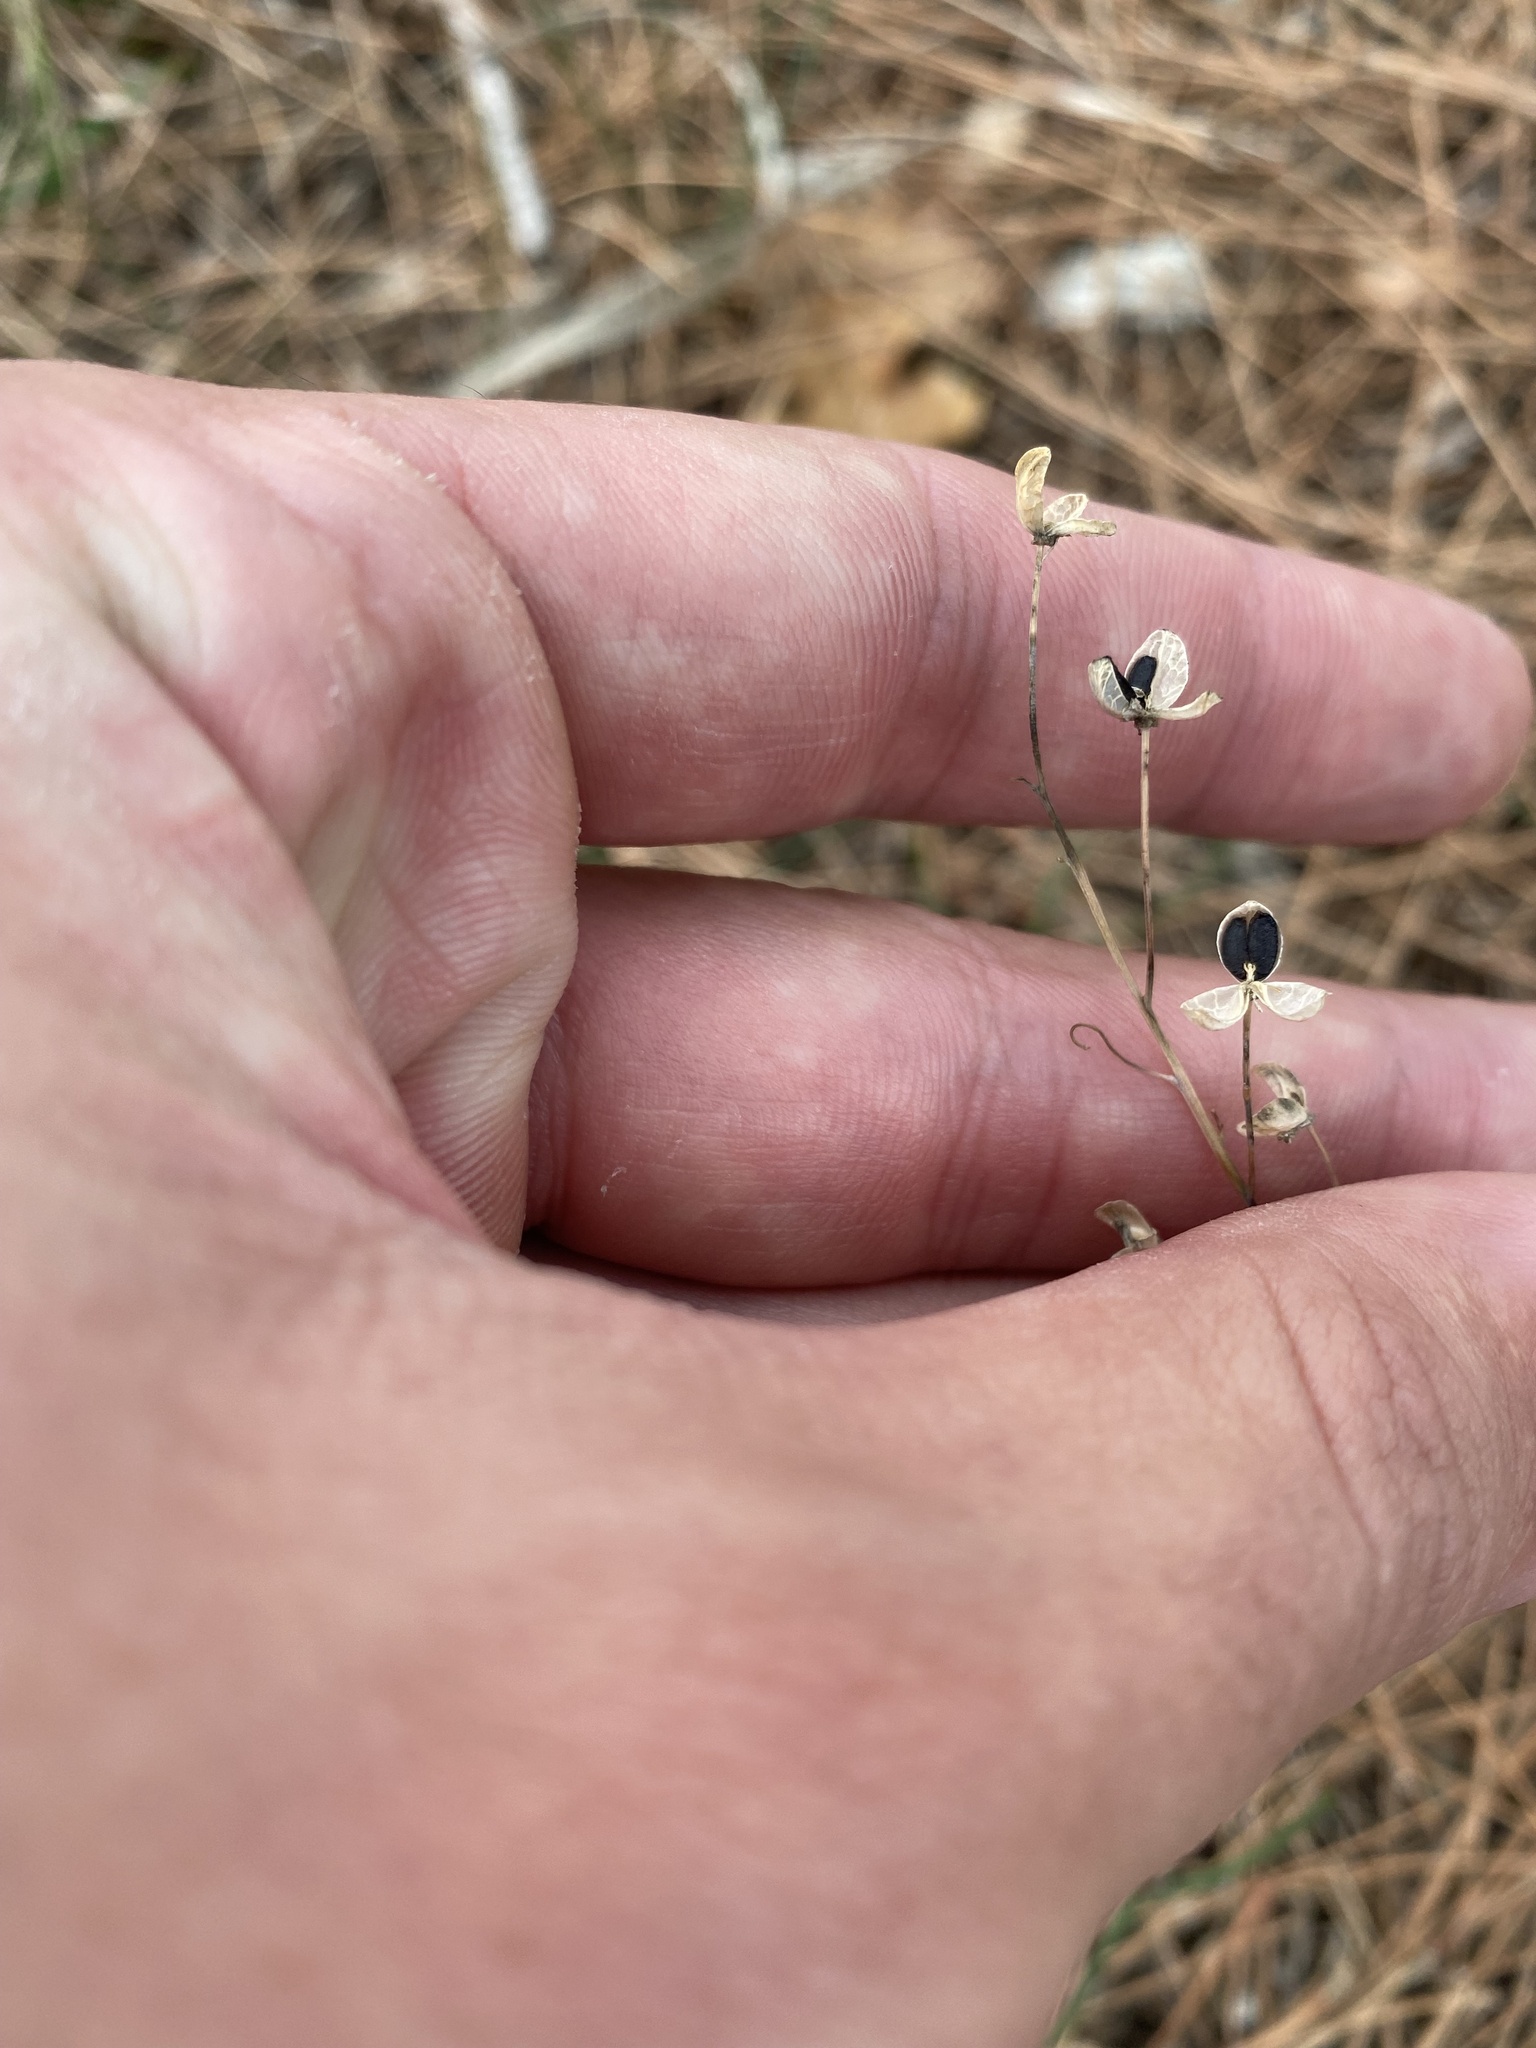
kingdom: Plantae
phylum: Tracheophyta
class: Liliopsida
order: Asparagales
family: Asparagaceae
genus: Prospero
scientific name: Prospero autumnale
